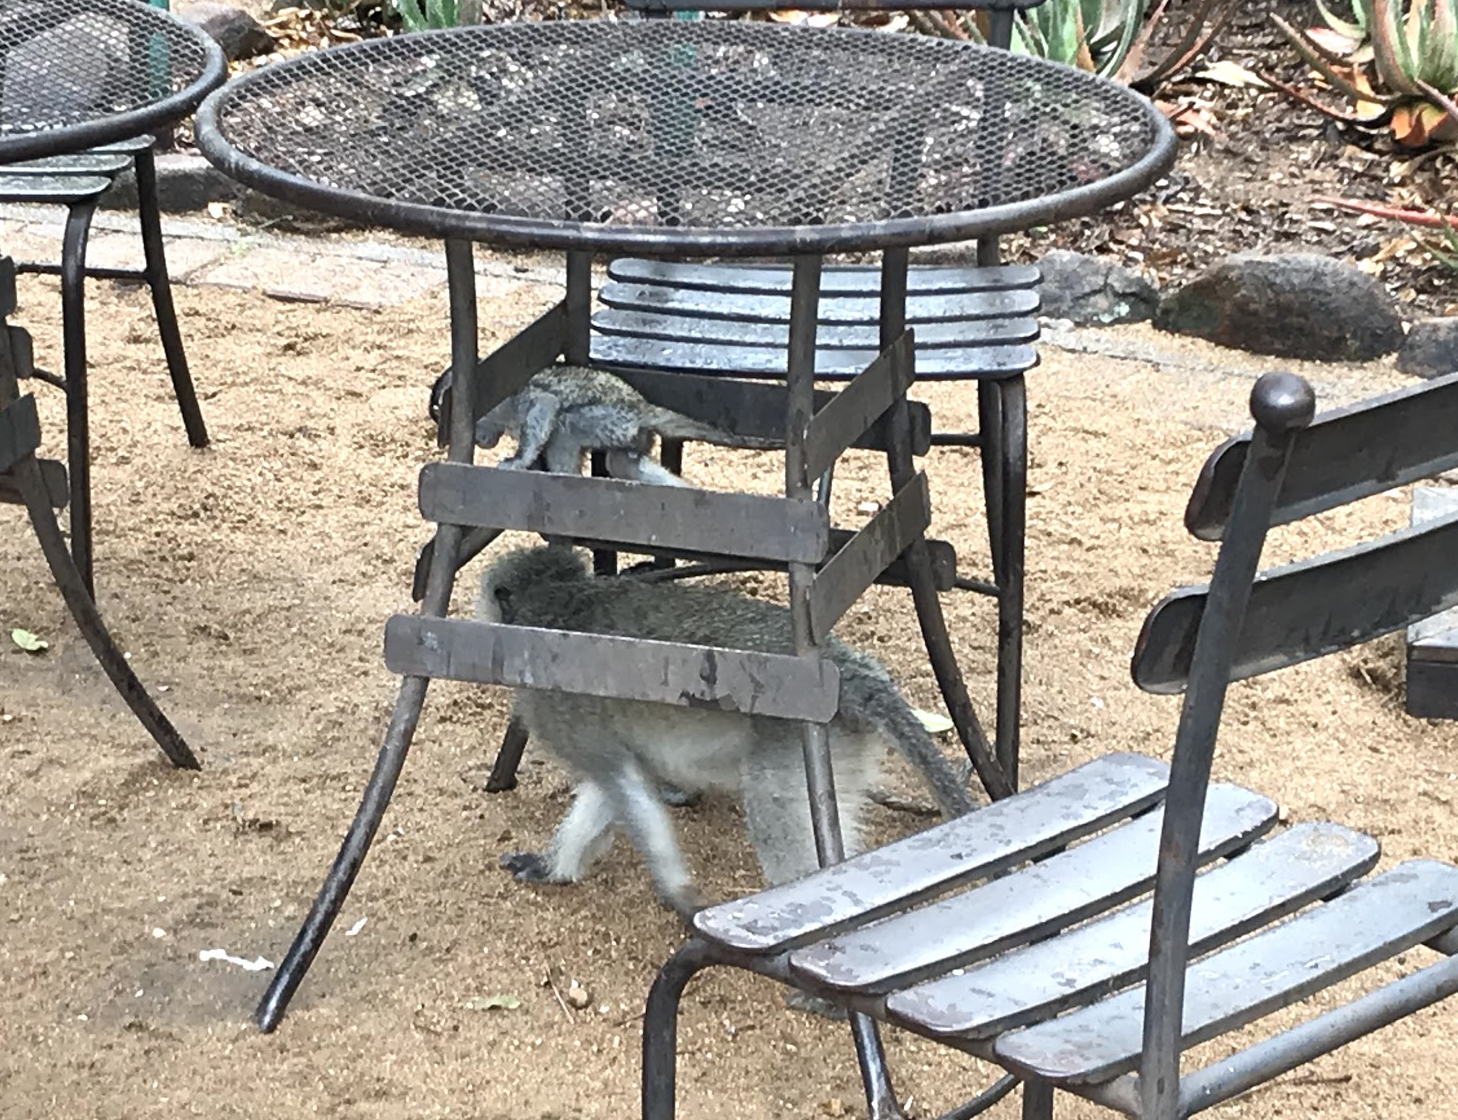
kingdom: Animalia
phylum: Chordata
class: Mammalia
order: Primates
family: Cercopithecidae
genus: Chlorocebus
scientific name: Chlorocebus pygerythrus
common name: Vervet monkey
